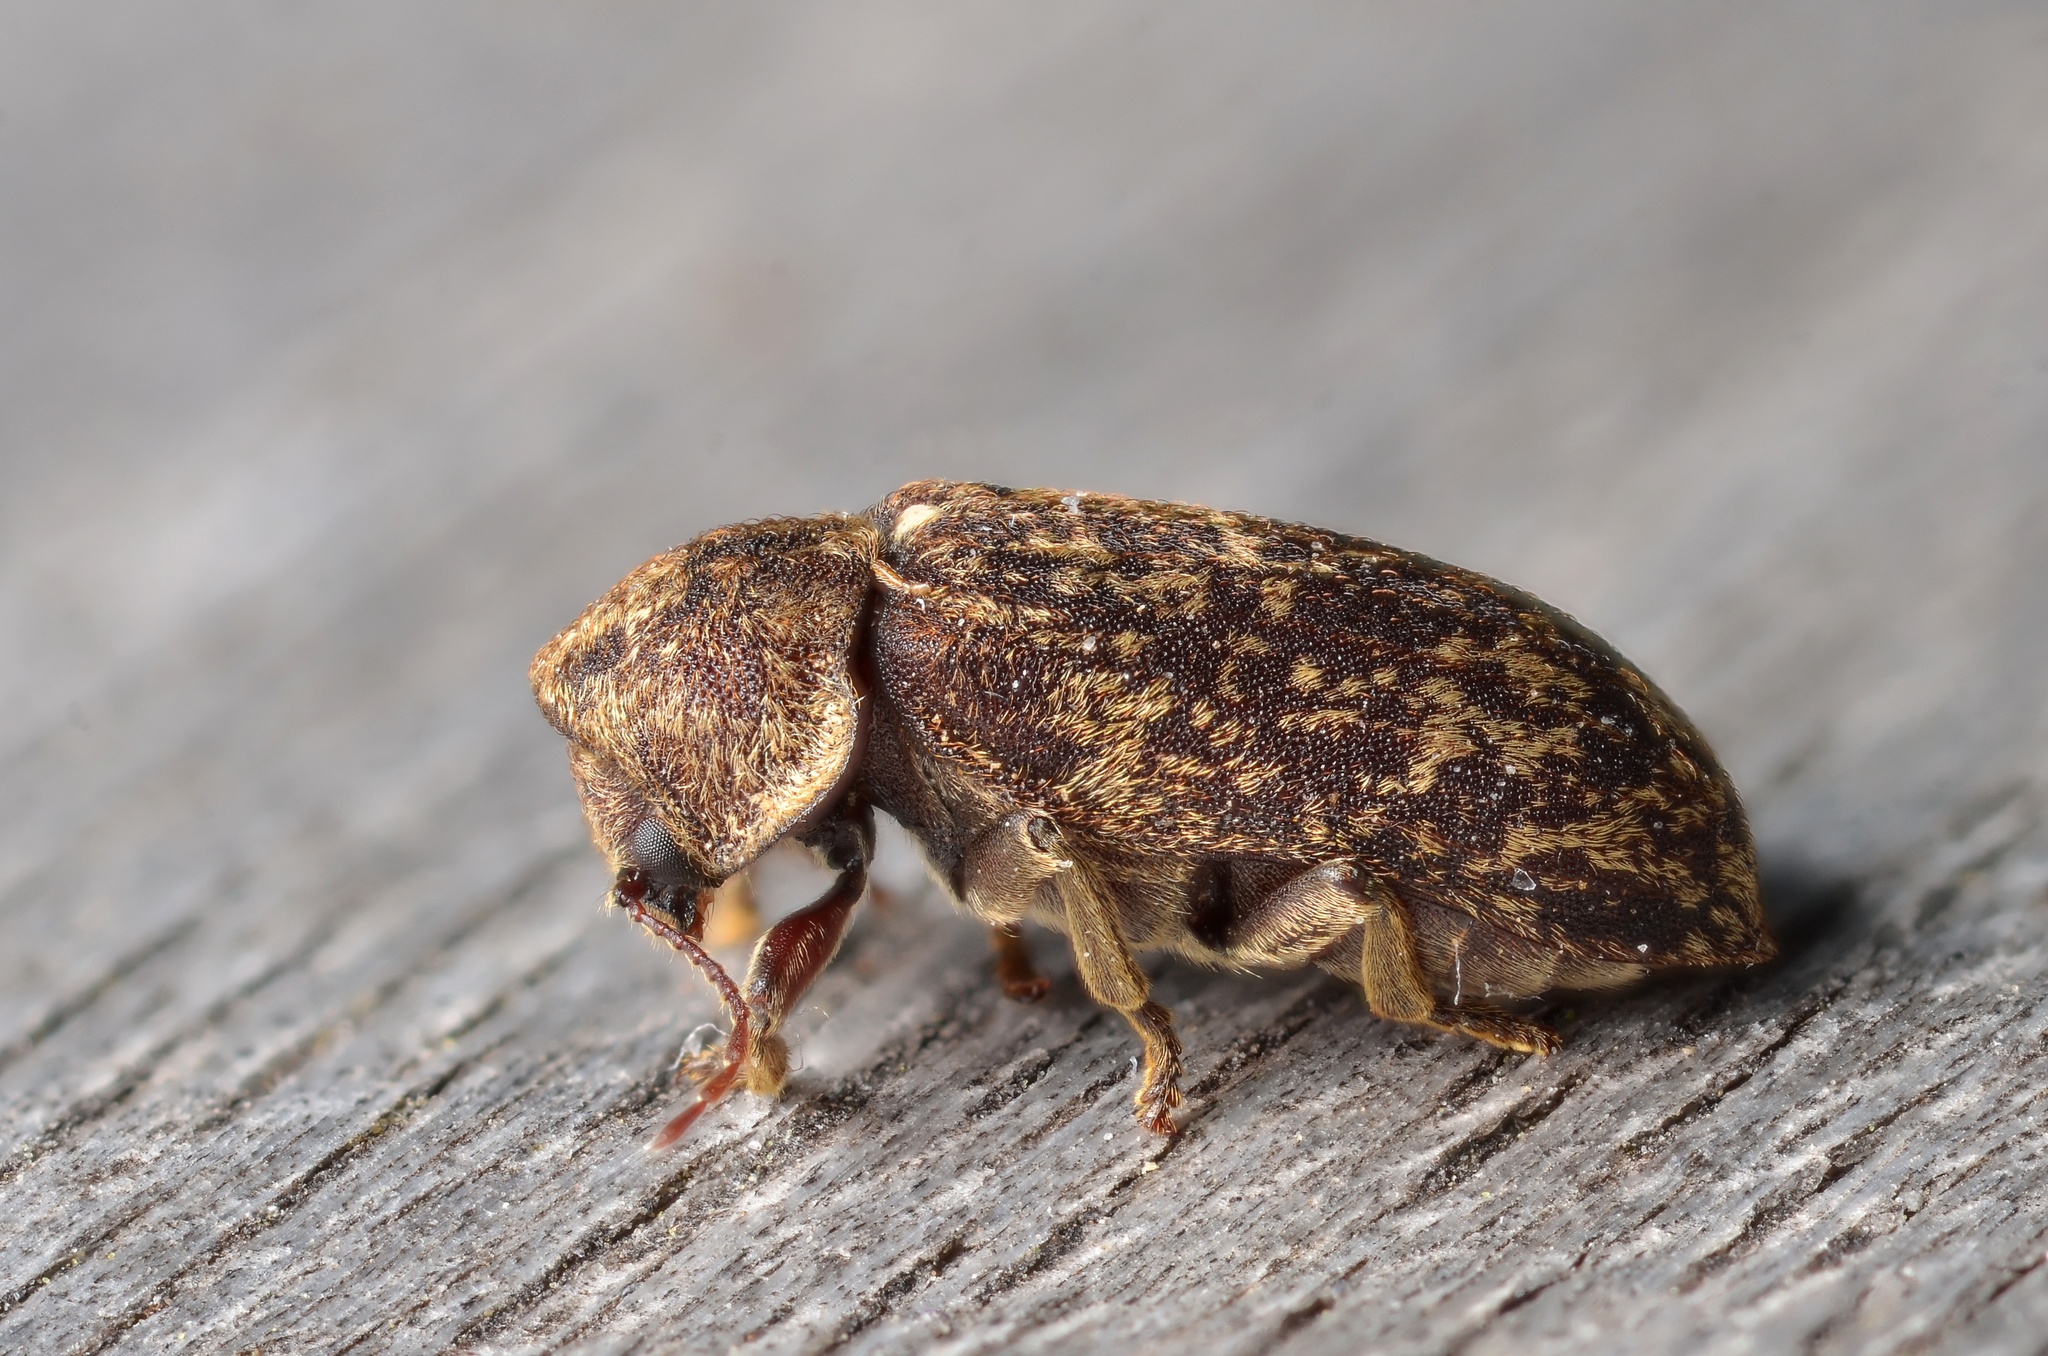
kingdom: Animalia
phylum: Arthropoda
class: Insecta
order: Coleoptera
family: Anobiidae
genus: Xestobium
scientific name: Xestobium rufovillosum
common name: Death-watch beetle
